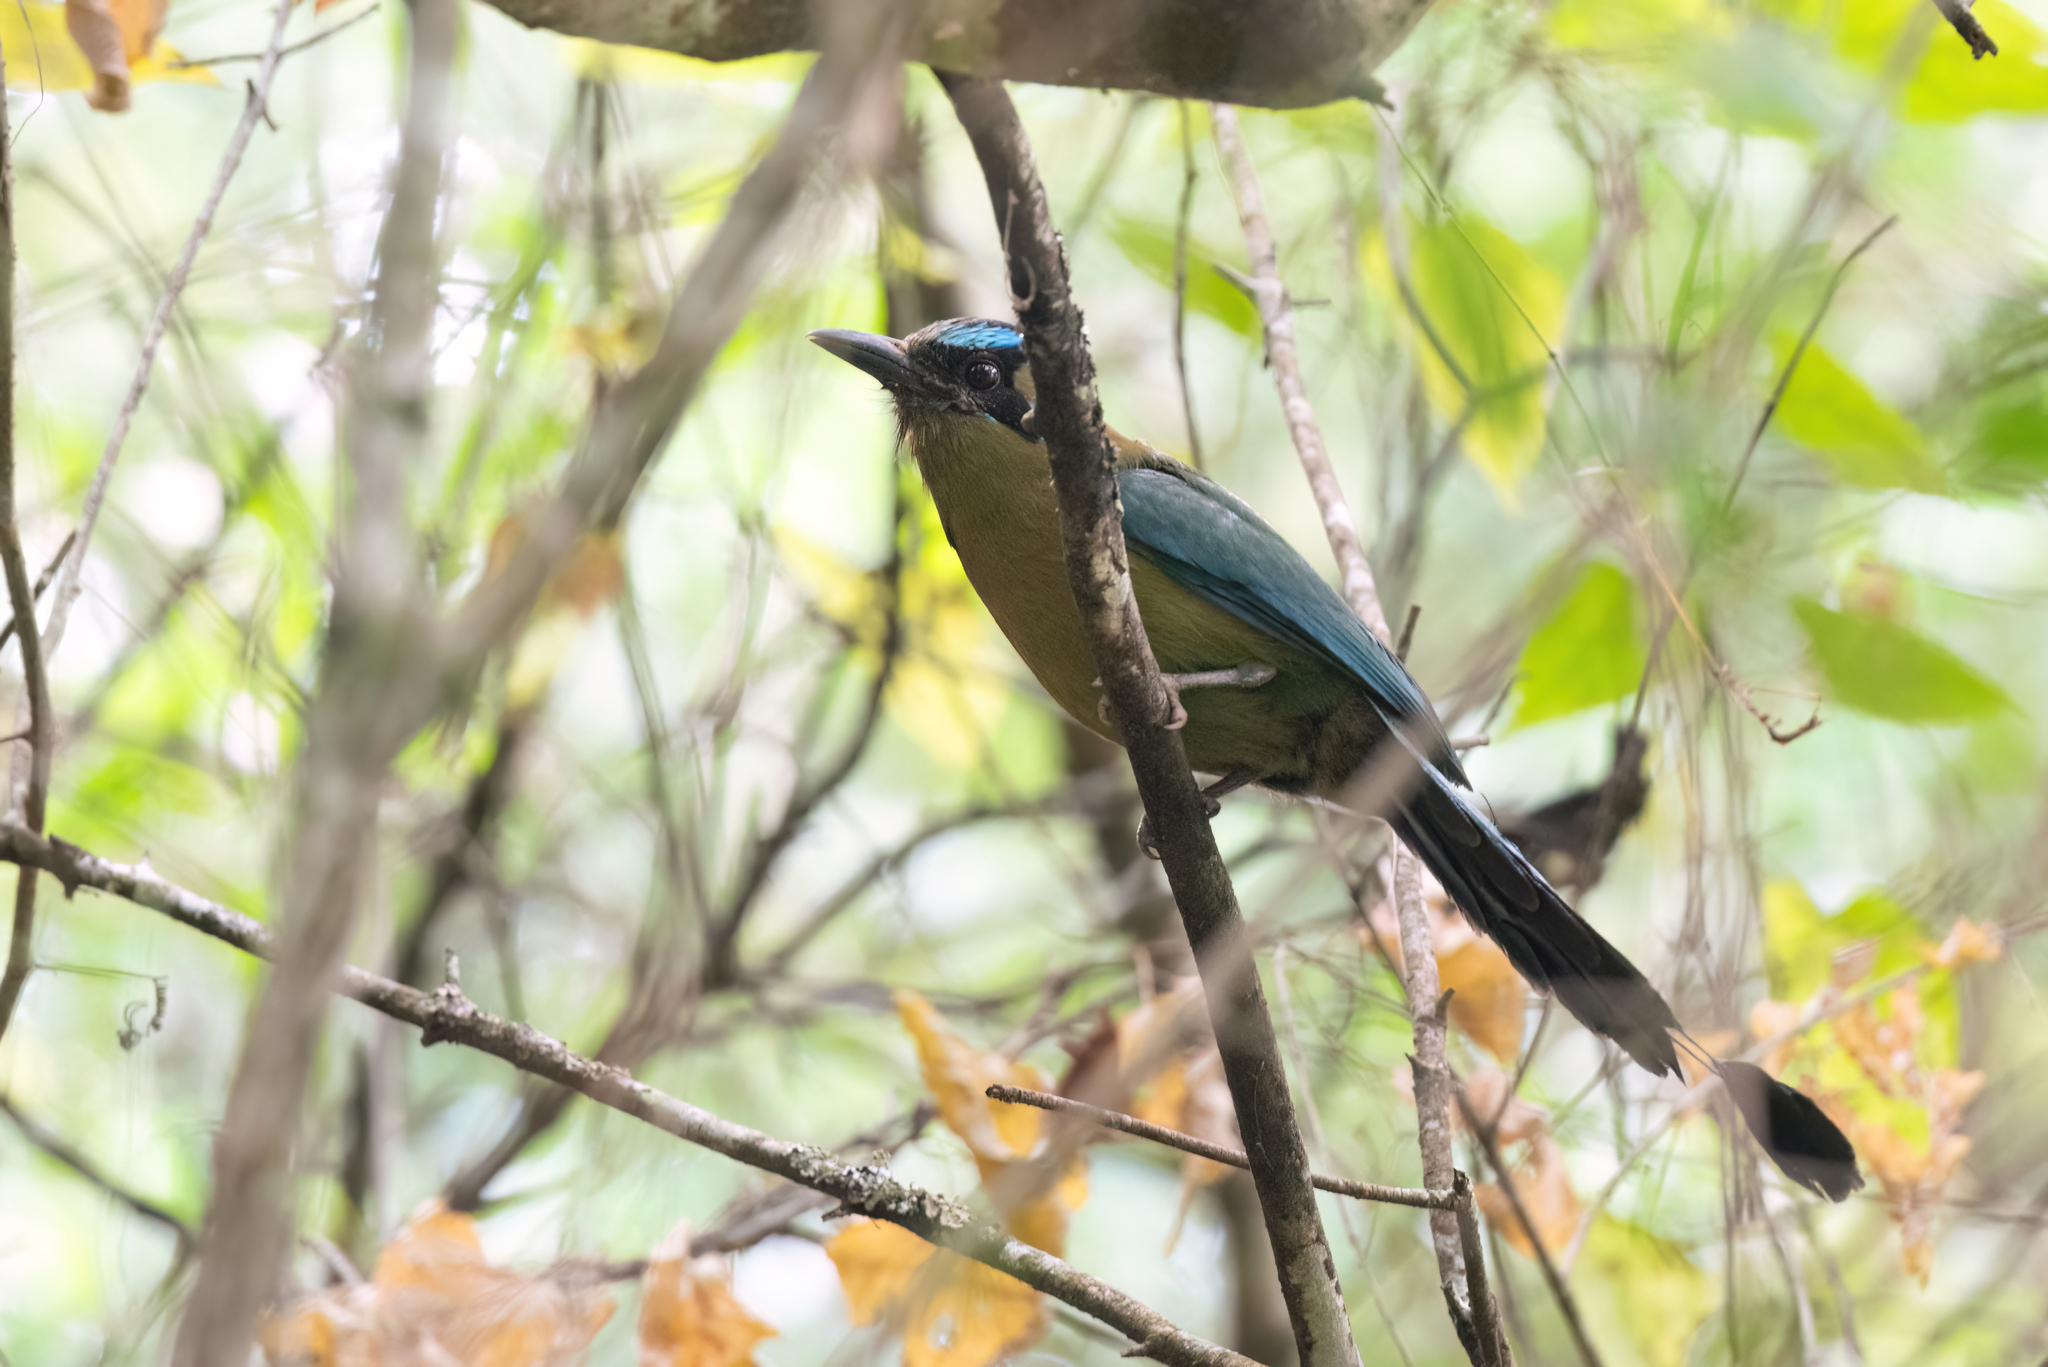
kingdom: Animalia
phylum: Chordata
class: Aves
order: Coraciiformes
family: Momotidae
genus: Momotus
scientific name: Momotus lessonii
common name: Lesson's motmot
